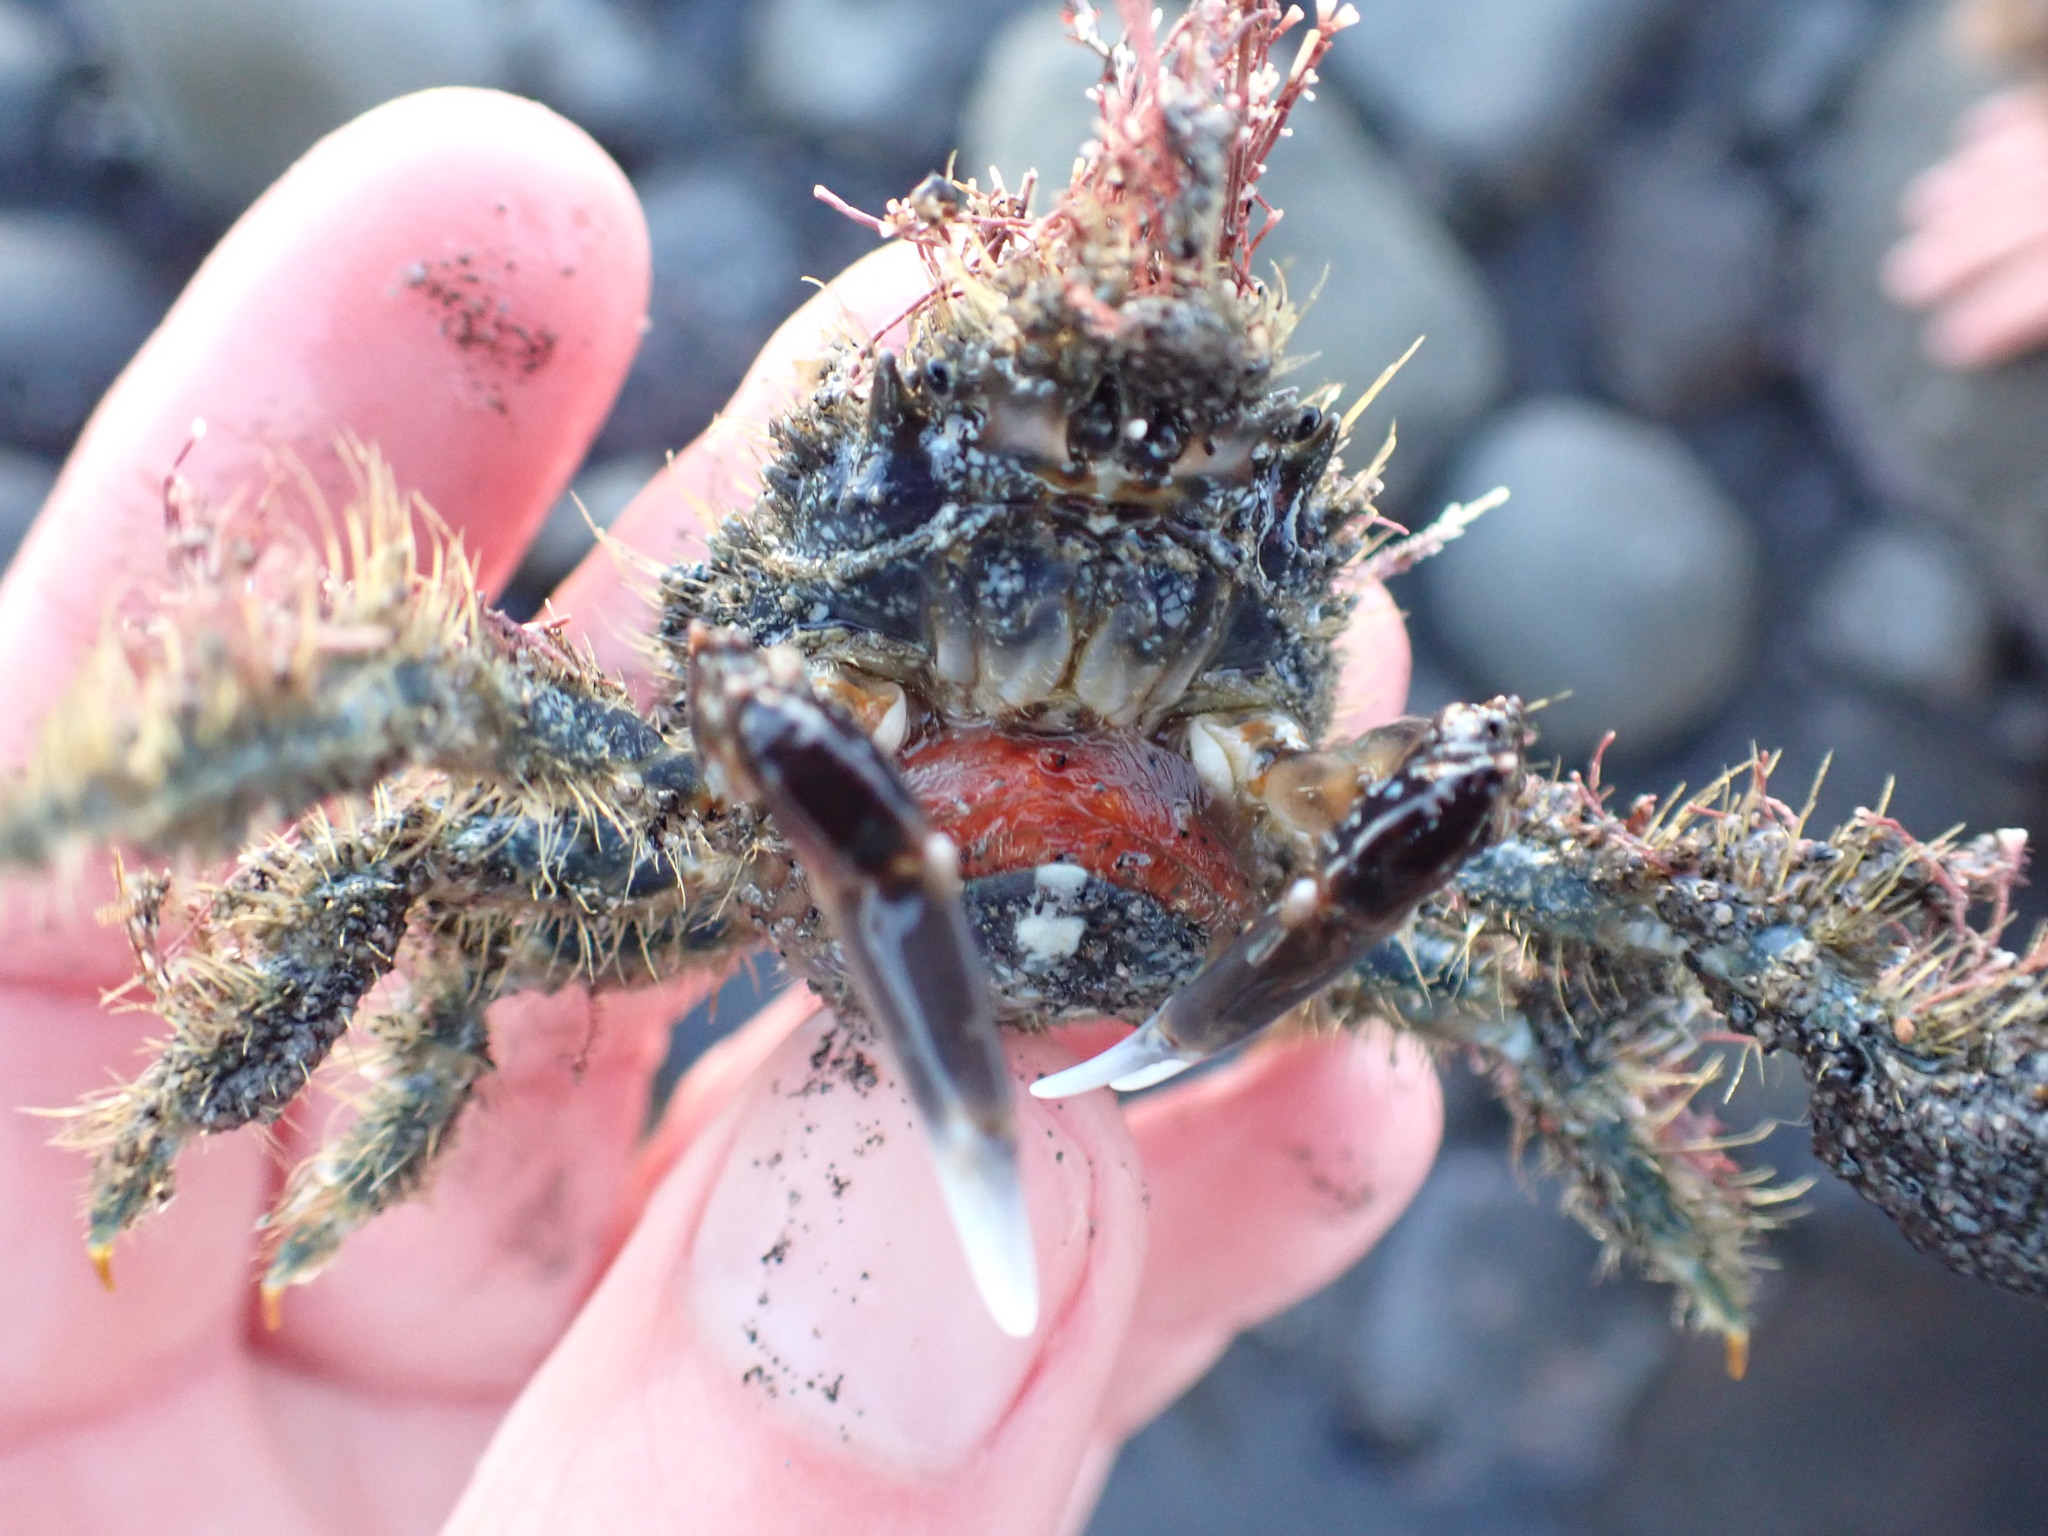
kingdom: Animalia
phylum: Arthropoda
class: Malacostraca
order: Decapoda
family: Majidae
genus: Notomithrax
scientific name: Notomithrax ursus
